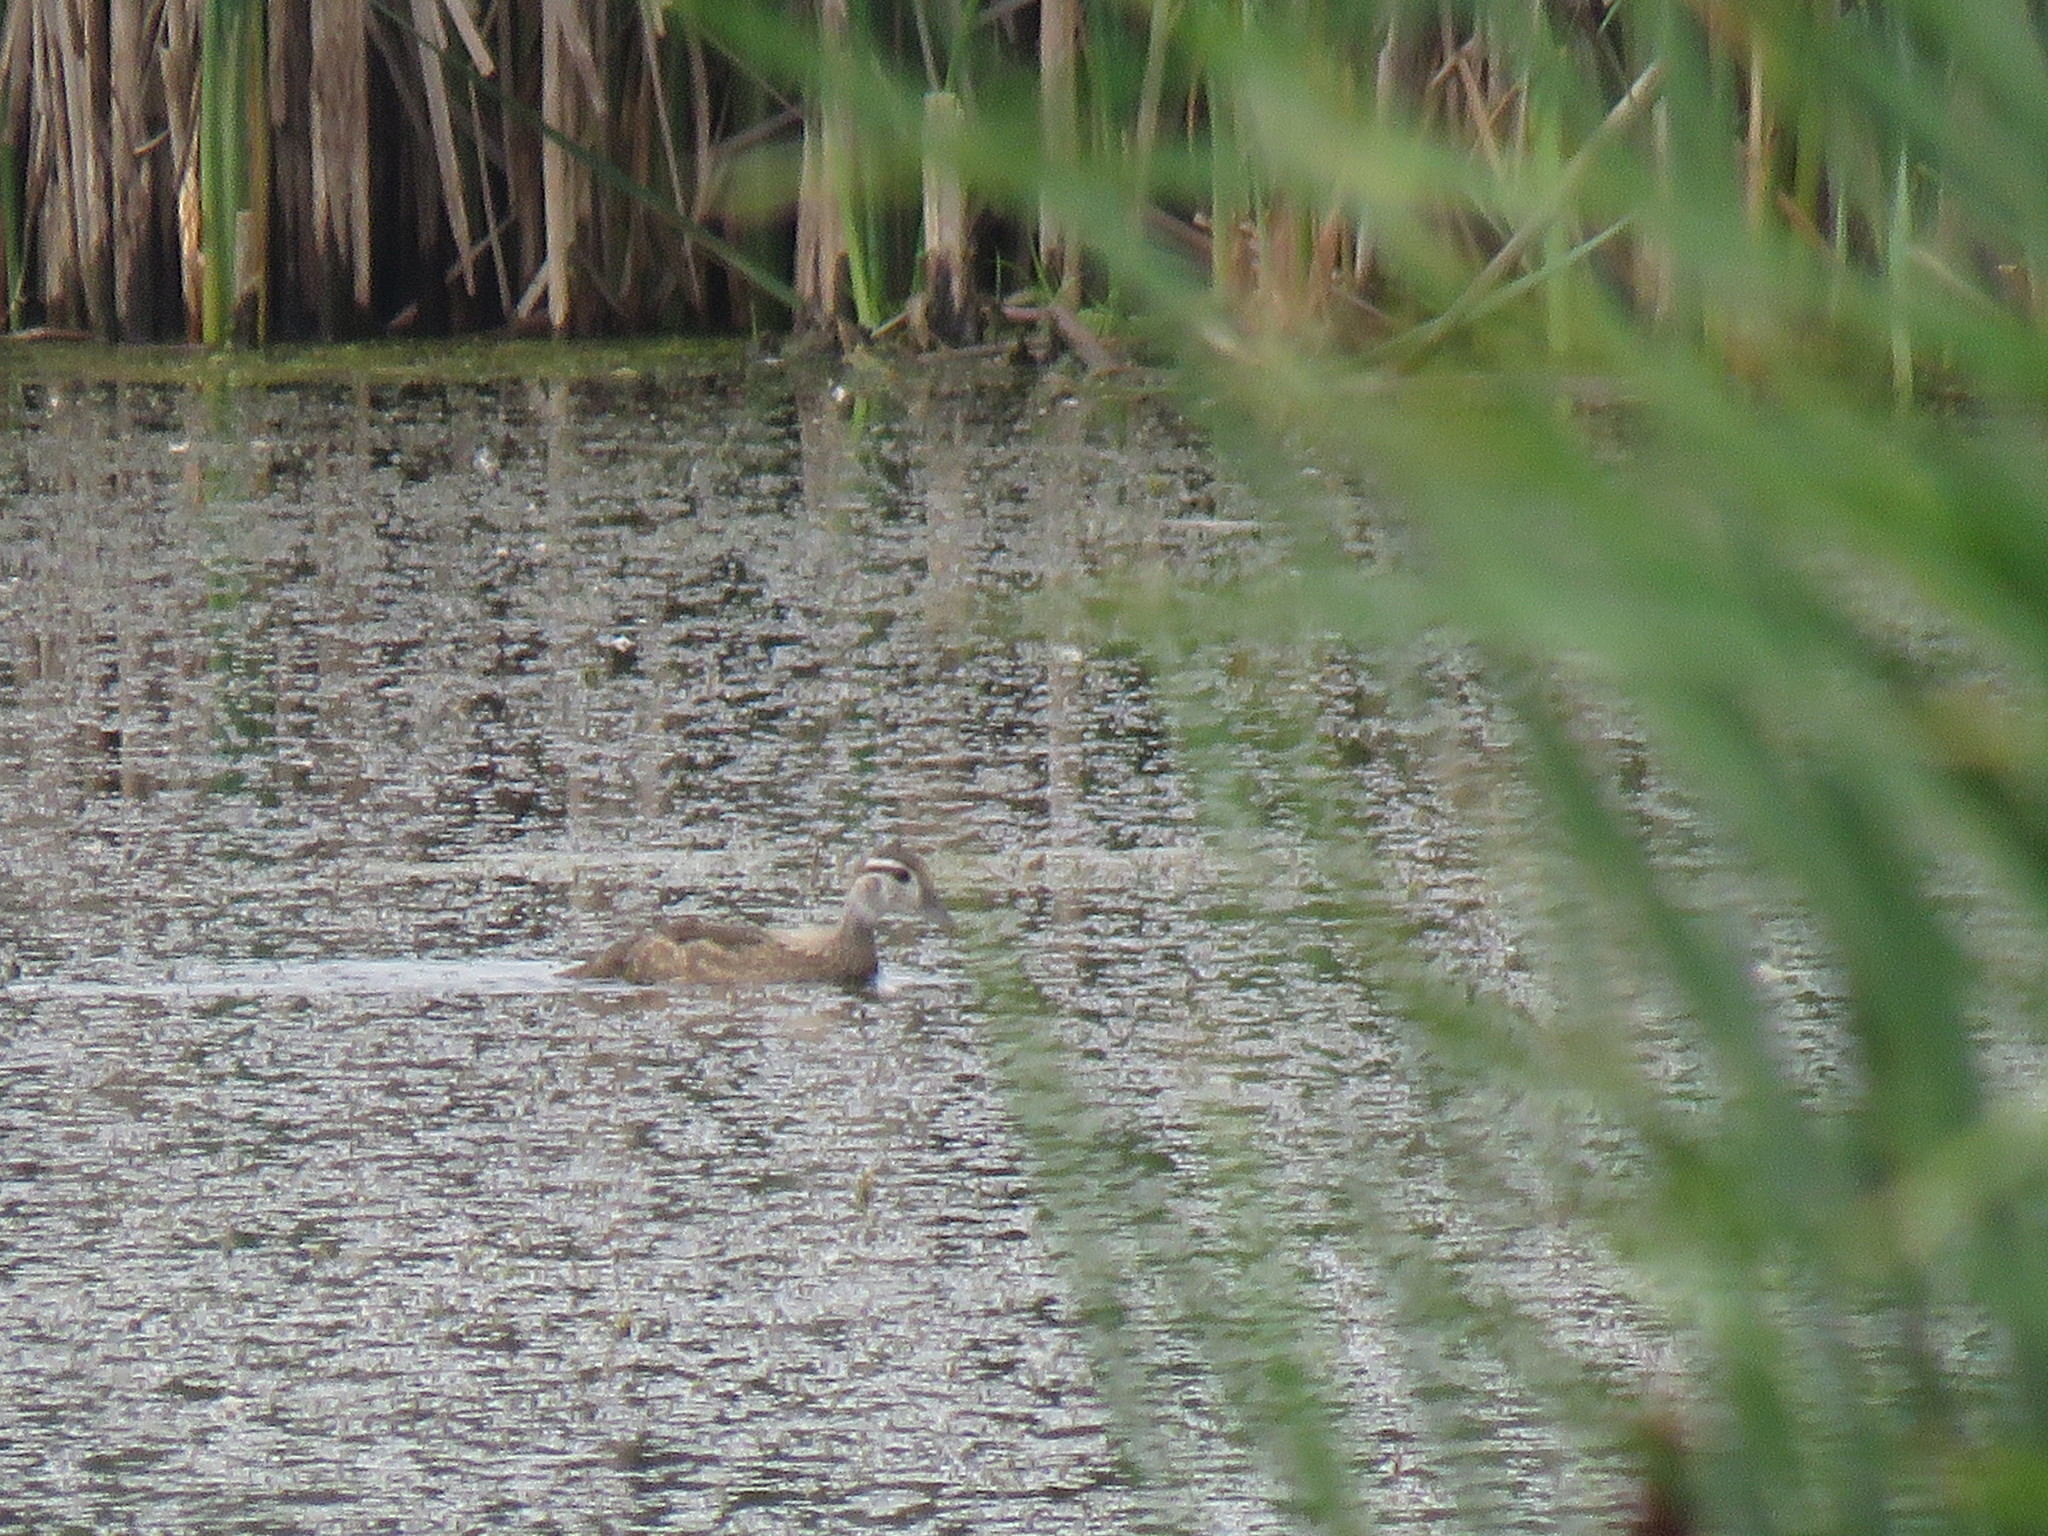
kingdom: Animalia
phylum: Chordata
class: Aves
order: Anseriformes
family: Anatidae
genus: Aix
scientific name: Aix sponsa
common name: Wood duck
